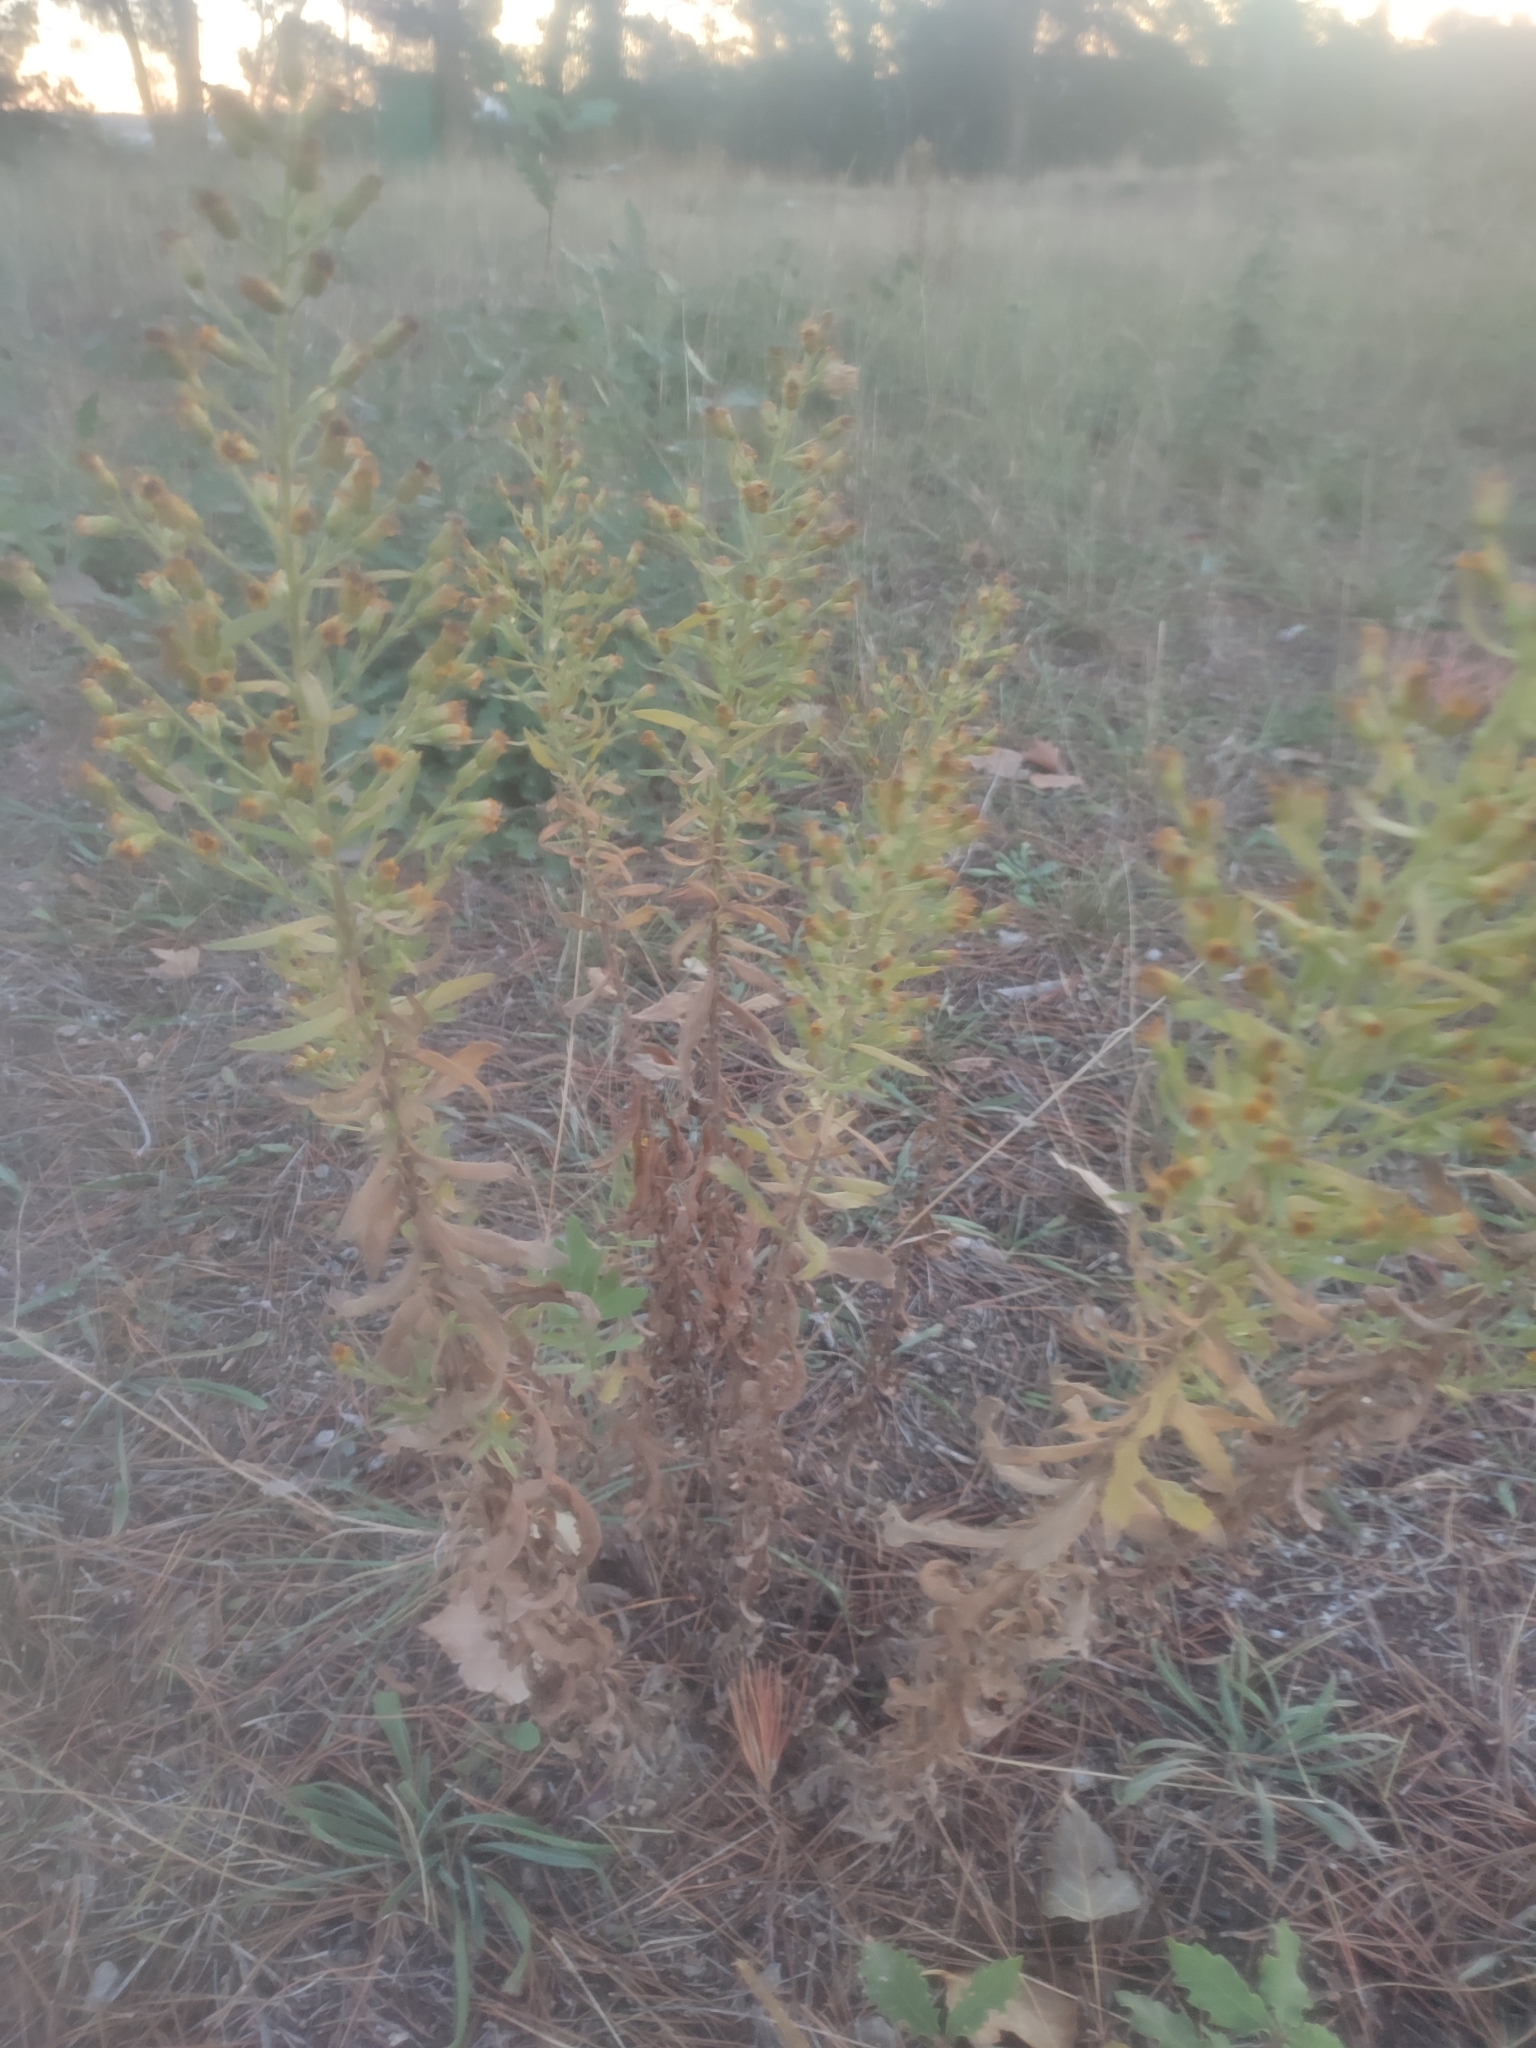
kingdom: Plantae
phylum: Tracheophyta
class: Magnoliopsida
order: Asterales
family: Asteraceae
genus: Dittrichia
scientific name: Dittrichia viscosa
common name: Woody fleabane
